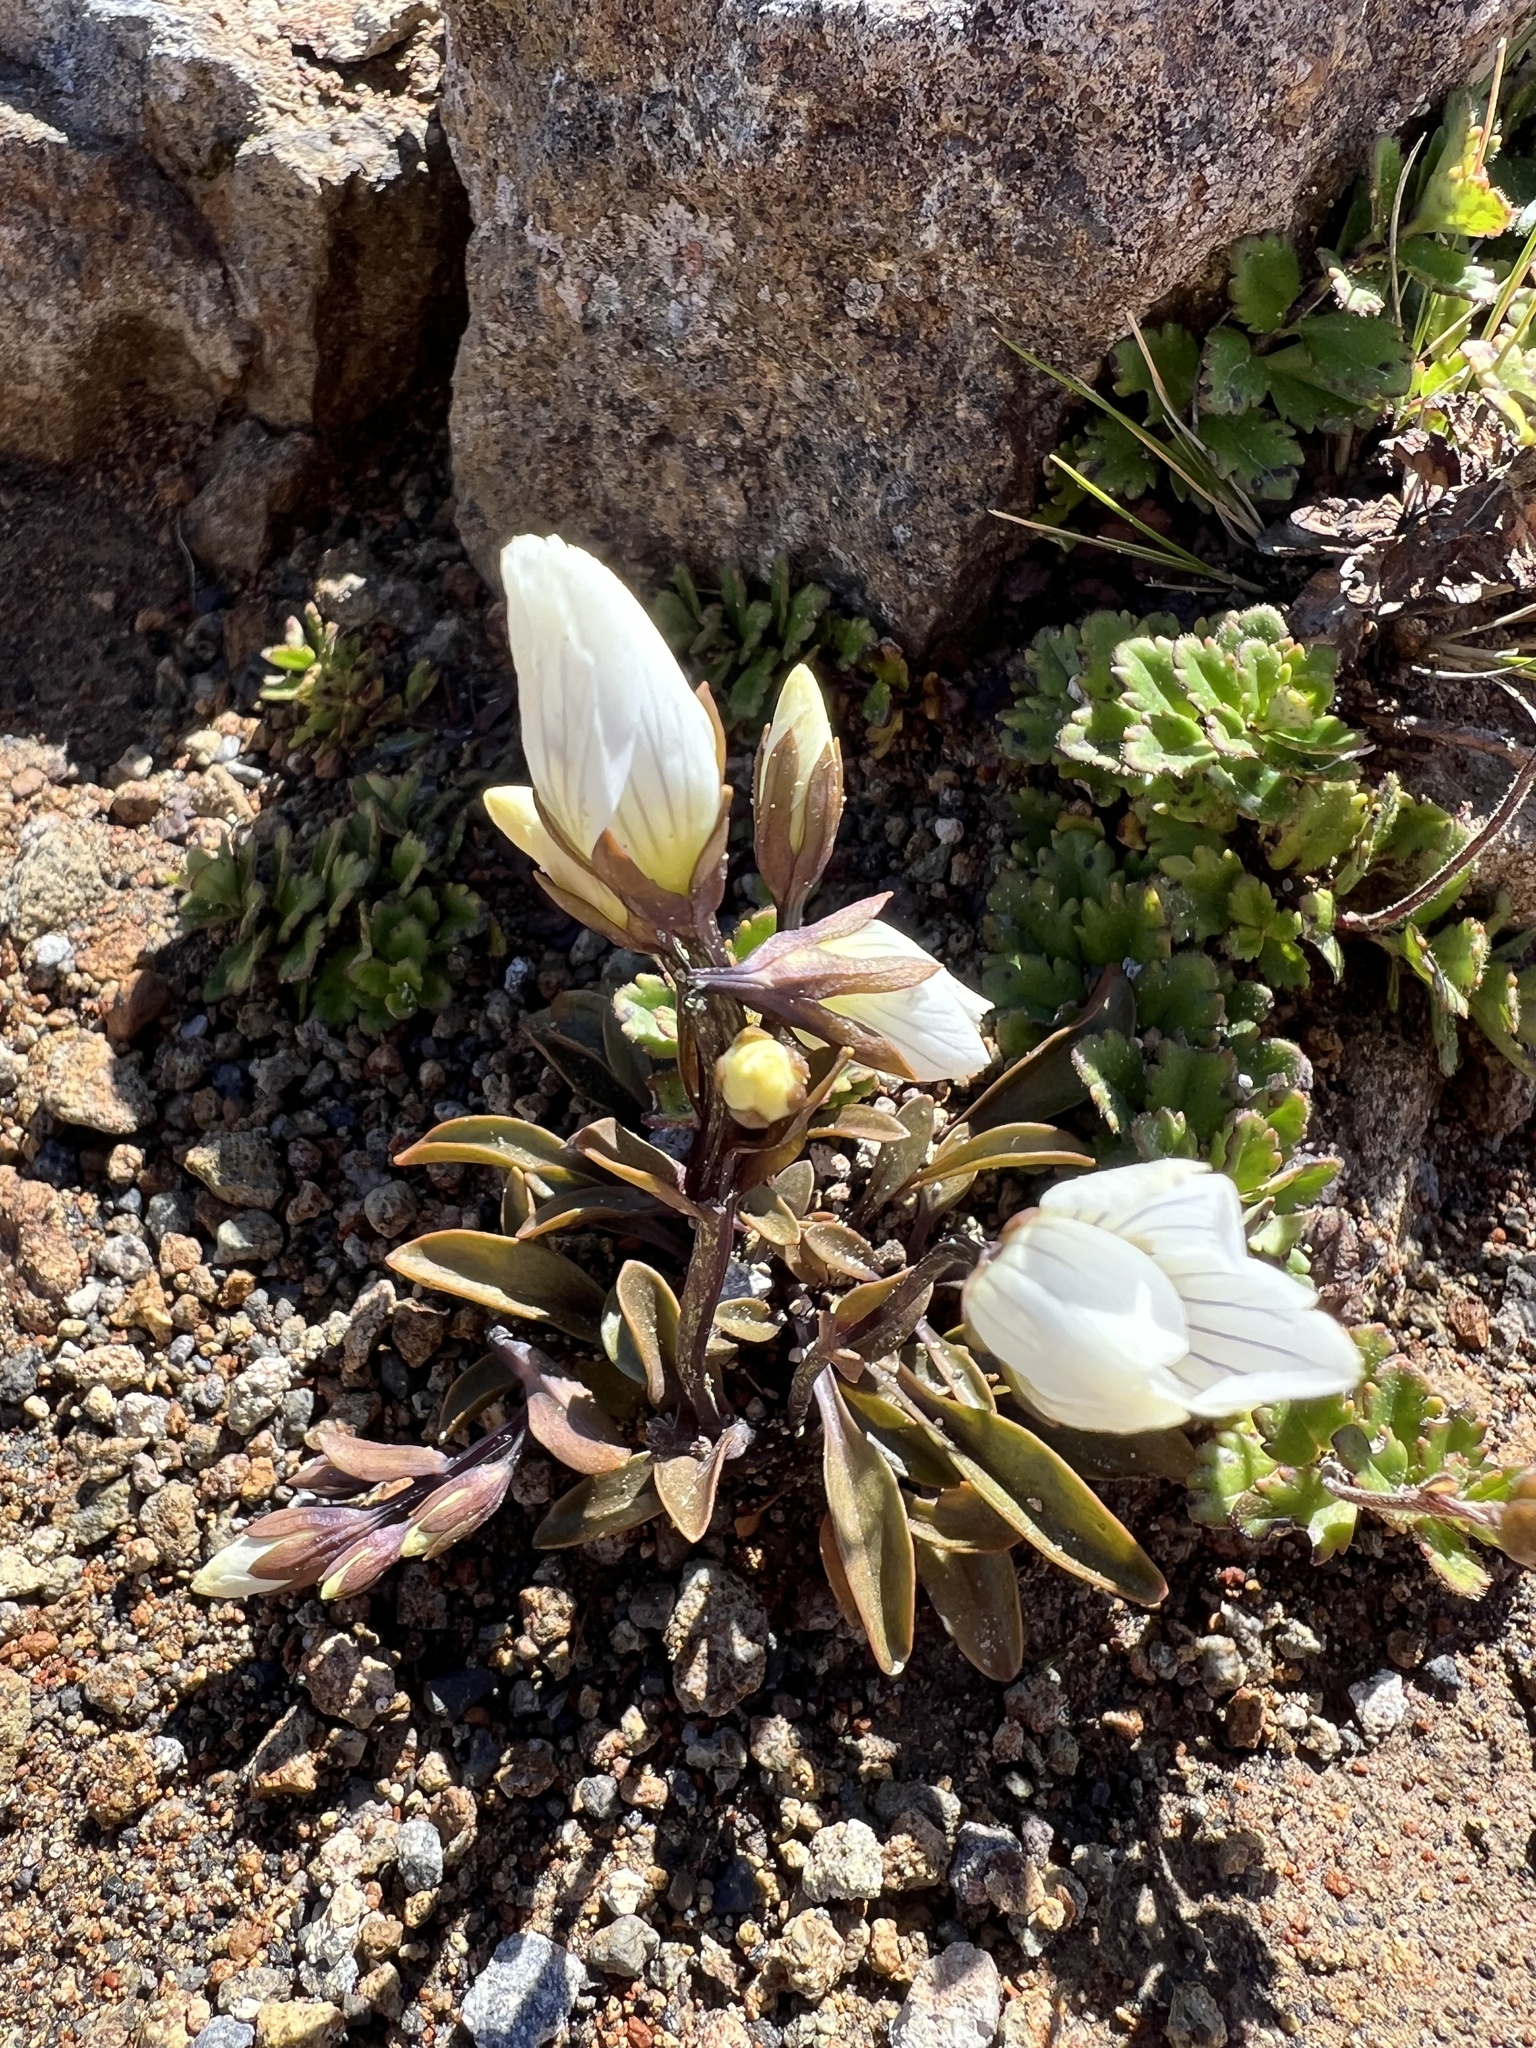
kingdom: Plantae
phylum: Tracheophyta
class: Magnoliopsida
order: Gentianales
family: Gentianaceae
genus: Gentianella
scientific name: Gentianella bellidifolia
